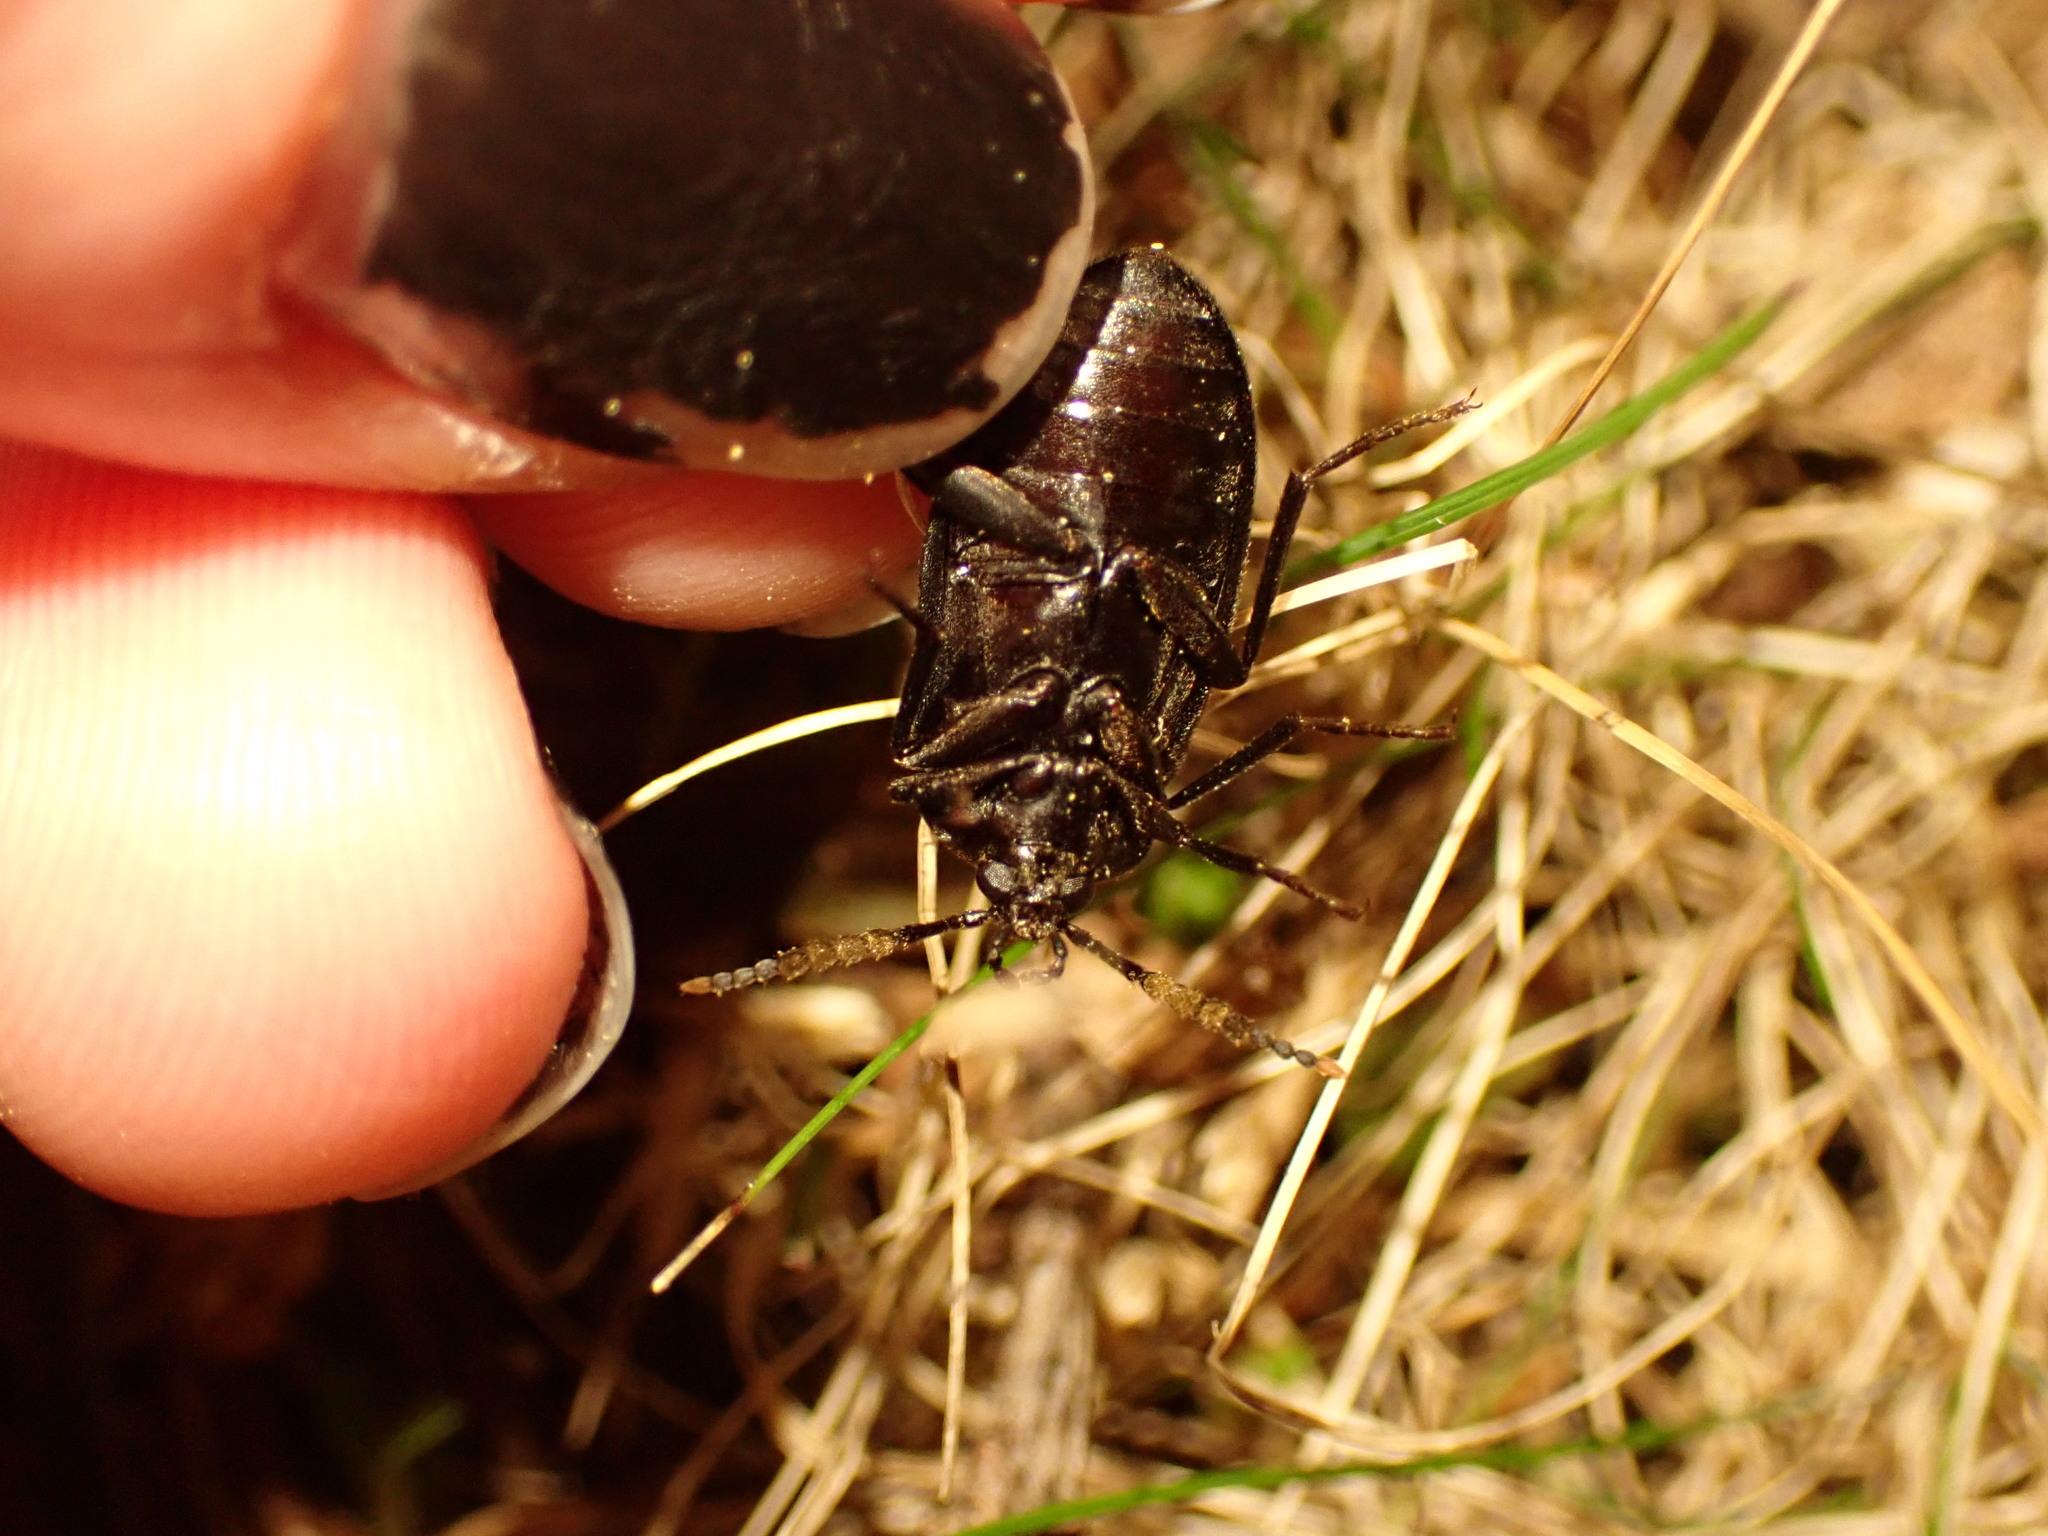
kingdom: Animalia
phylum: Arthropoda
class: Insecta
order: Coleoptera
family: Tetratomidae
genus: Penthe
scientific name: Penthe pimelia
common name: Velvety bark beetle
